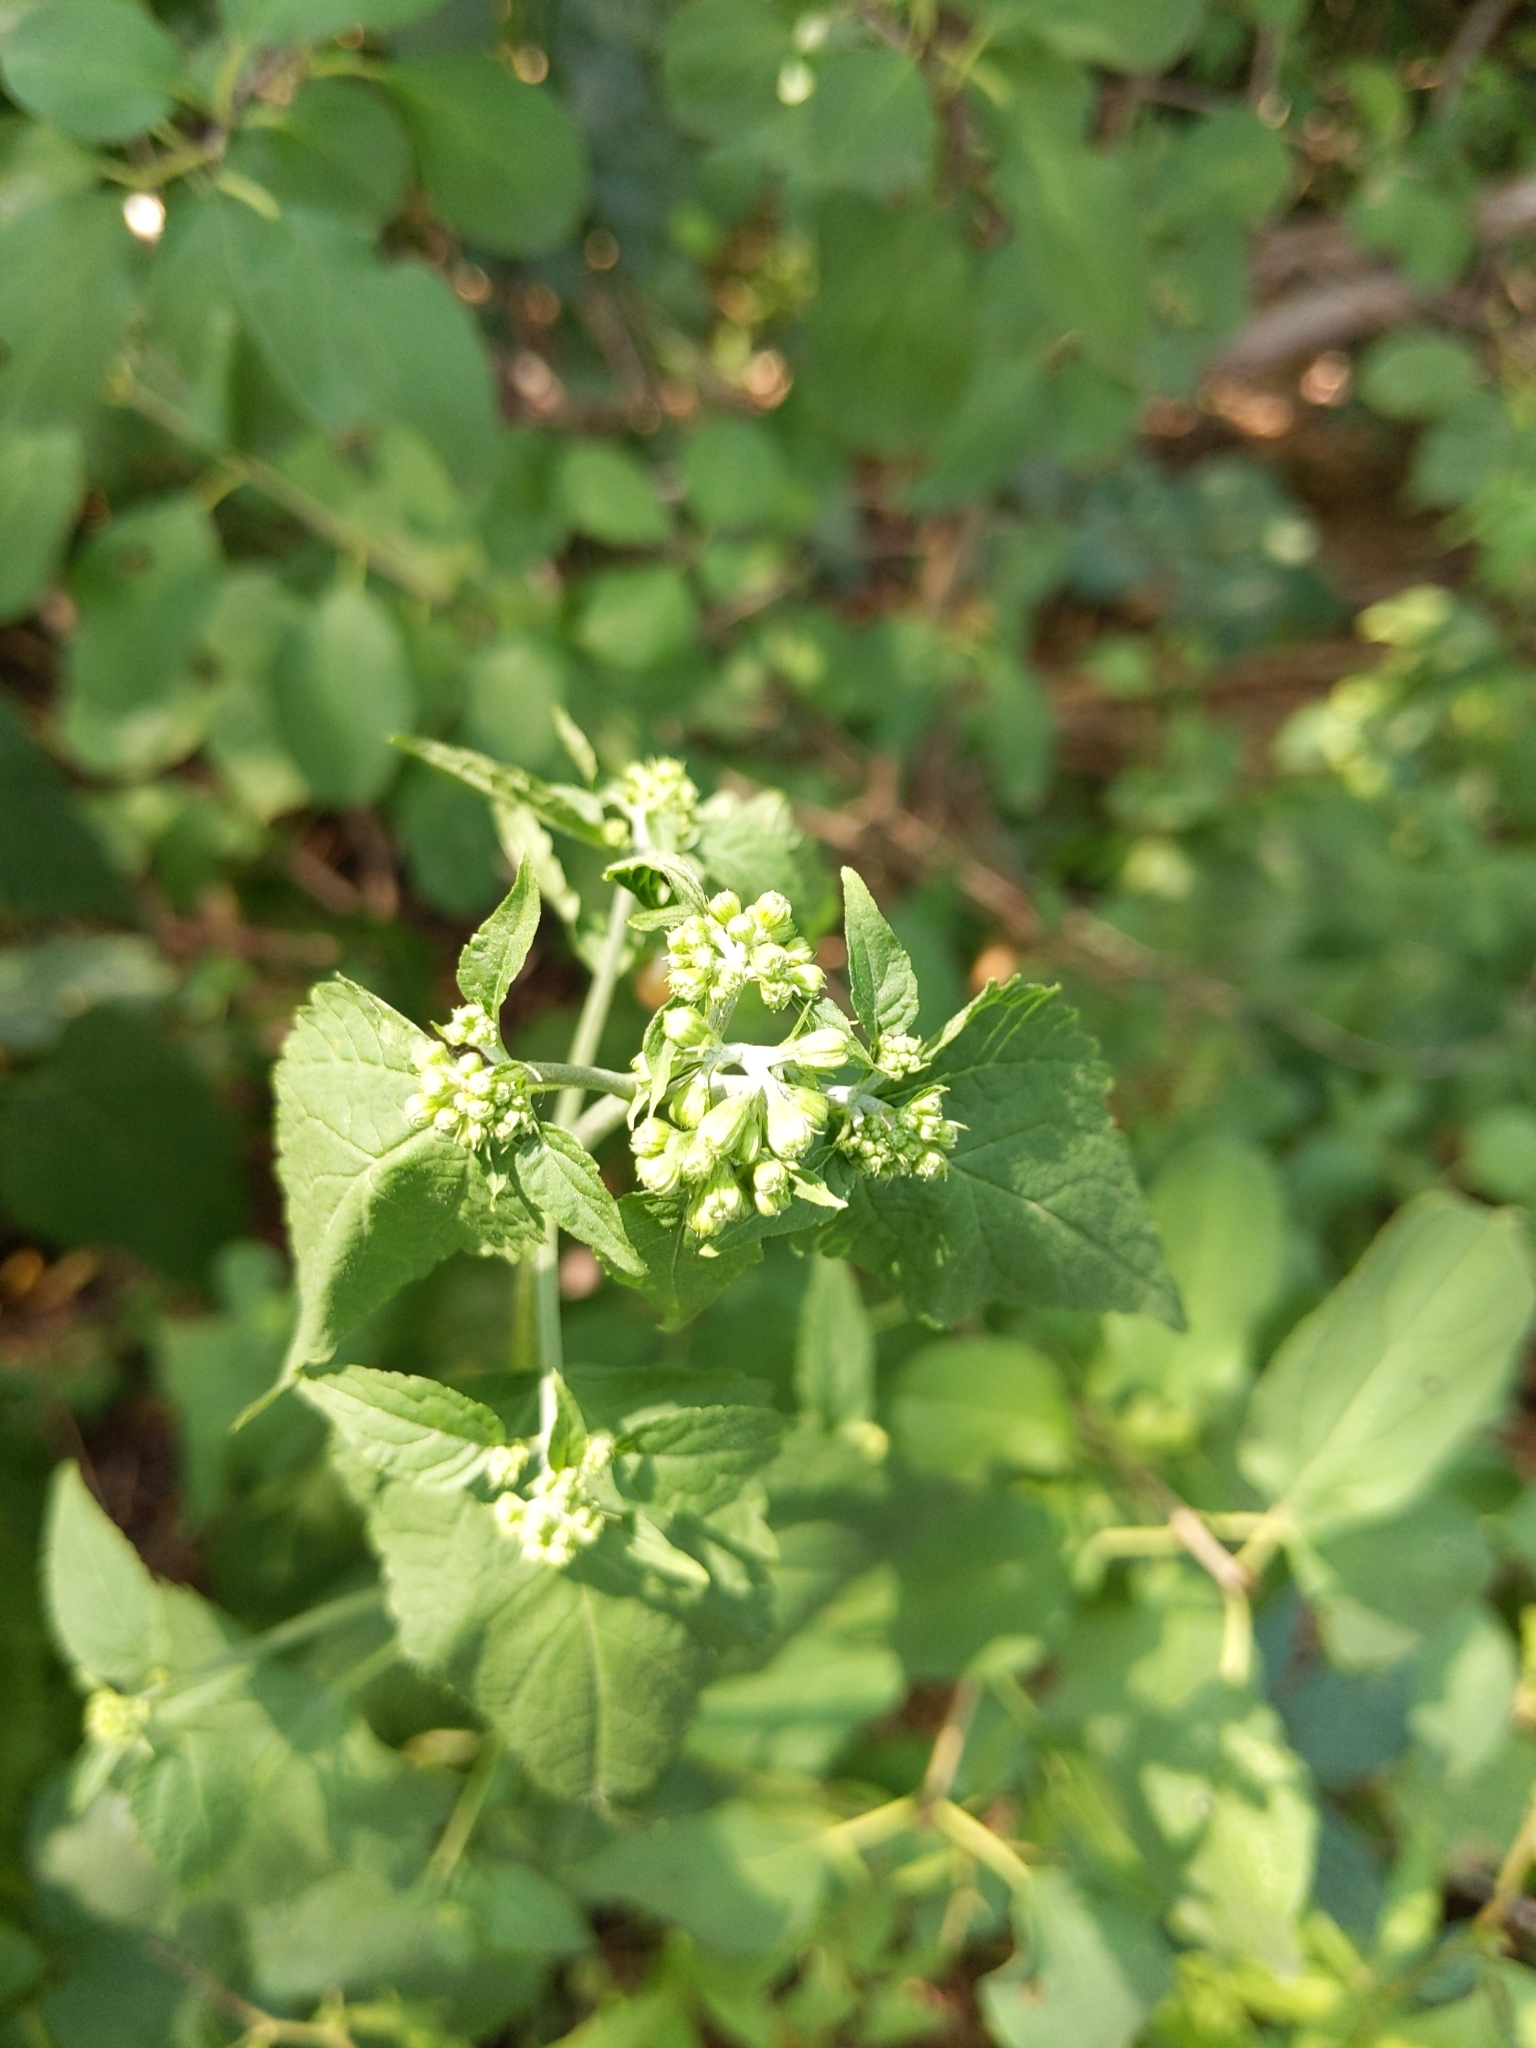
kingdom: Plantae
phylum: Tracheophyta
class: Magnoliopsida
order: Asterales
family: Asteraceae
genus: Ageratina
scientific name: Ageratina altissima
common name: White snakeroot
